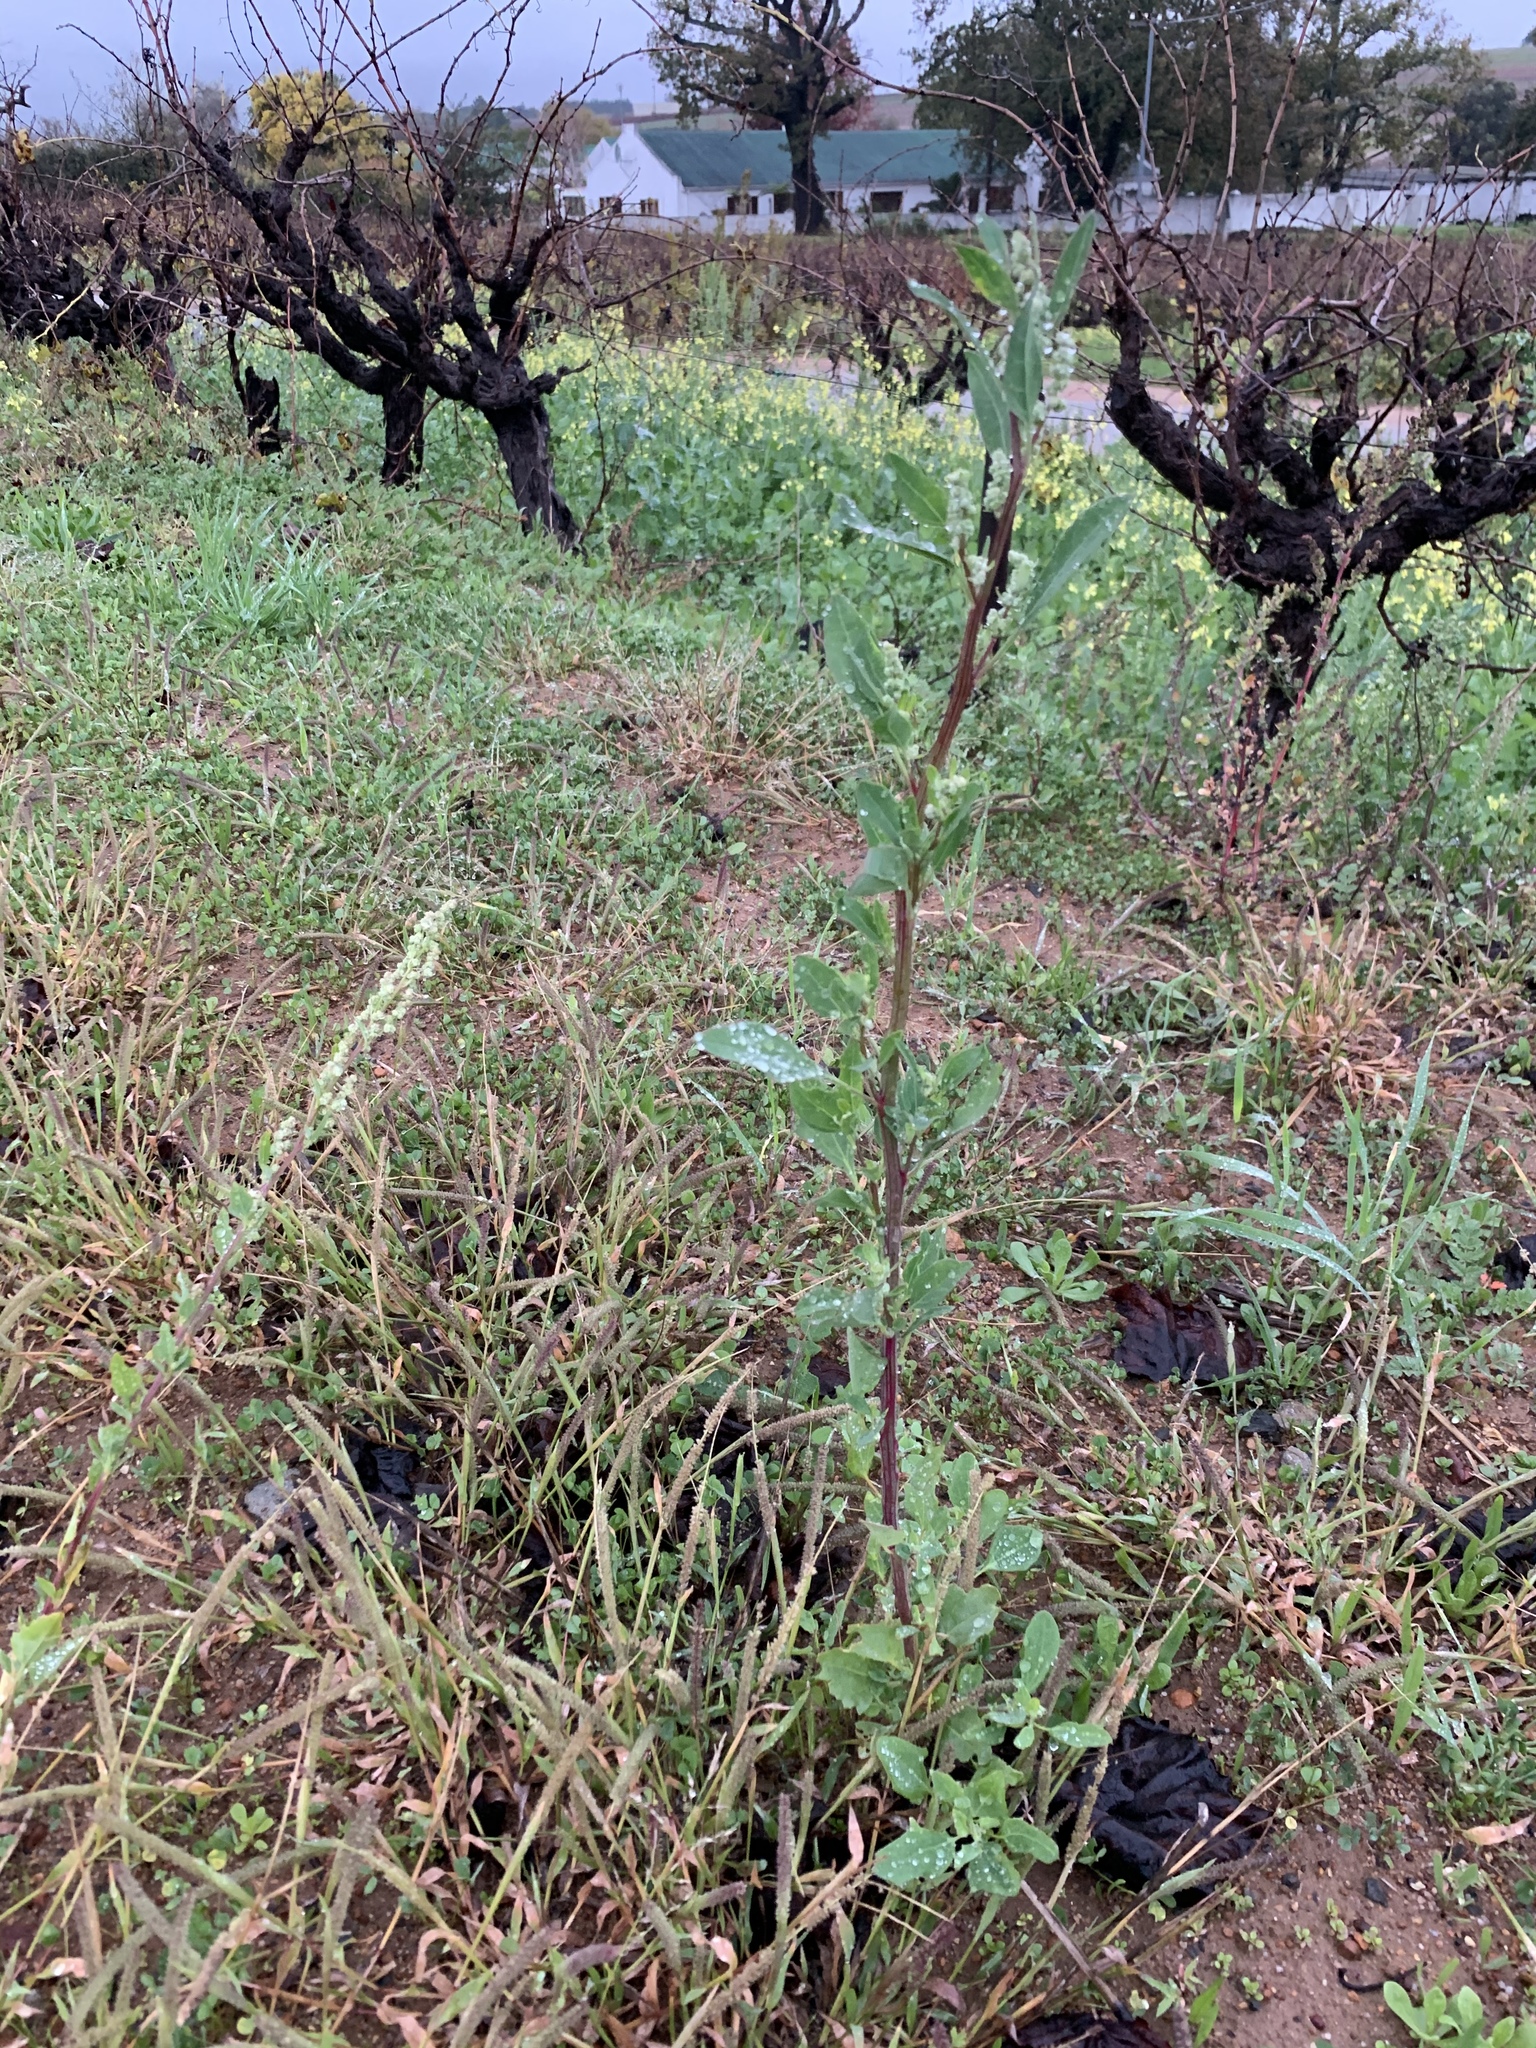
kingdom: Plantae
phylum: Tracheophyta
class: Magnoliopsida
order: Caryophyllales
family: Amaranthaceae
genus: Chenopodium
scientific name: Chenopodium album
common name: Fat-hen
